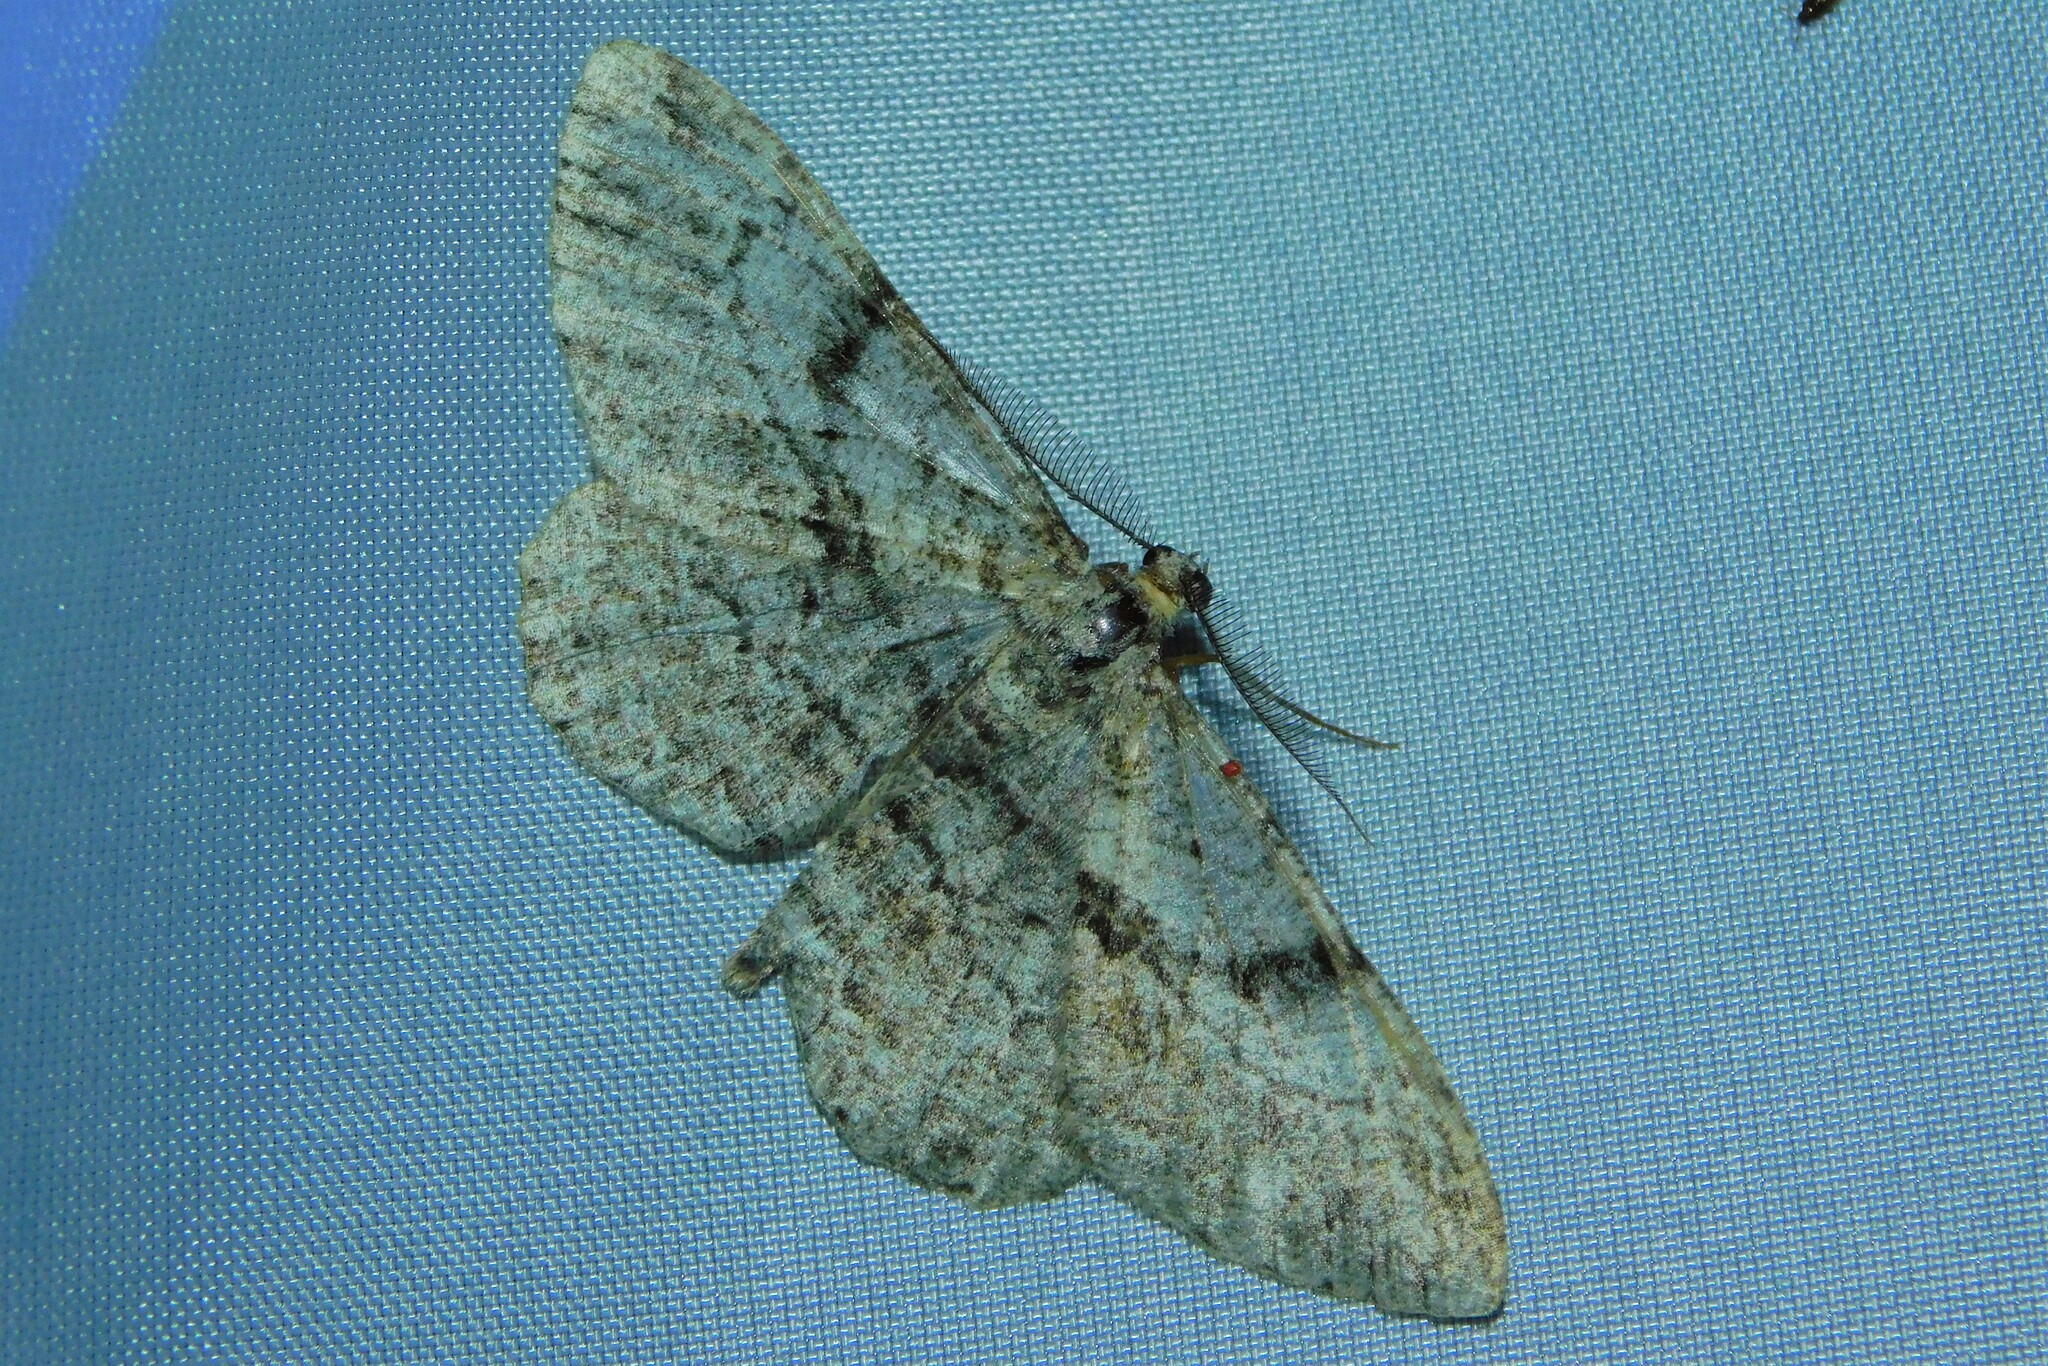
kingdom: Animalia
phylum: Arthropoda
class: Insecta
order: Lepidoptera
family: Geometridae
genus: Peribatodes
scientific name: Peribatodes rhomboidaria
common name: Willow beauty
